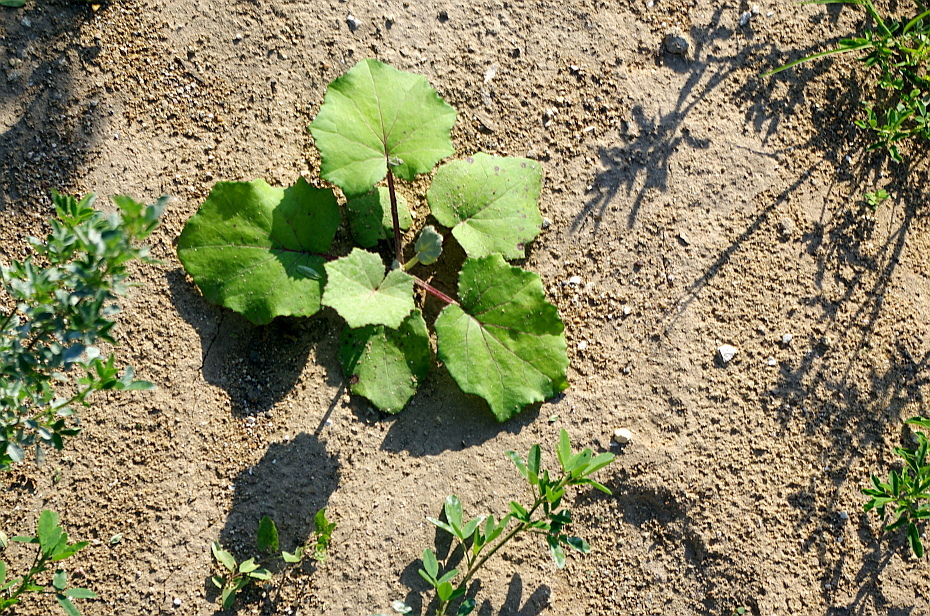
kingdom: Plantae
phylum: Tracheophyta
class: Magnoliopsida
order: Asterales
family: Asteraceae
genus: Tussilago
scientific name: Tussilago farfara
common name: Coltsfoot
